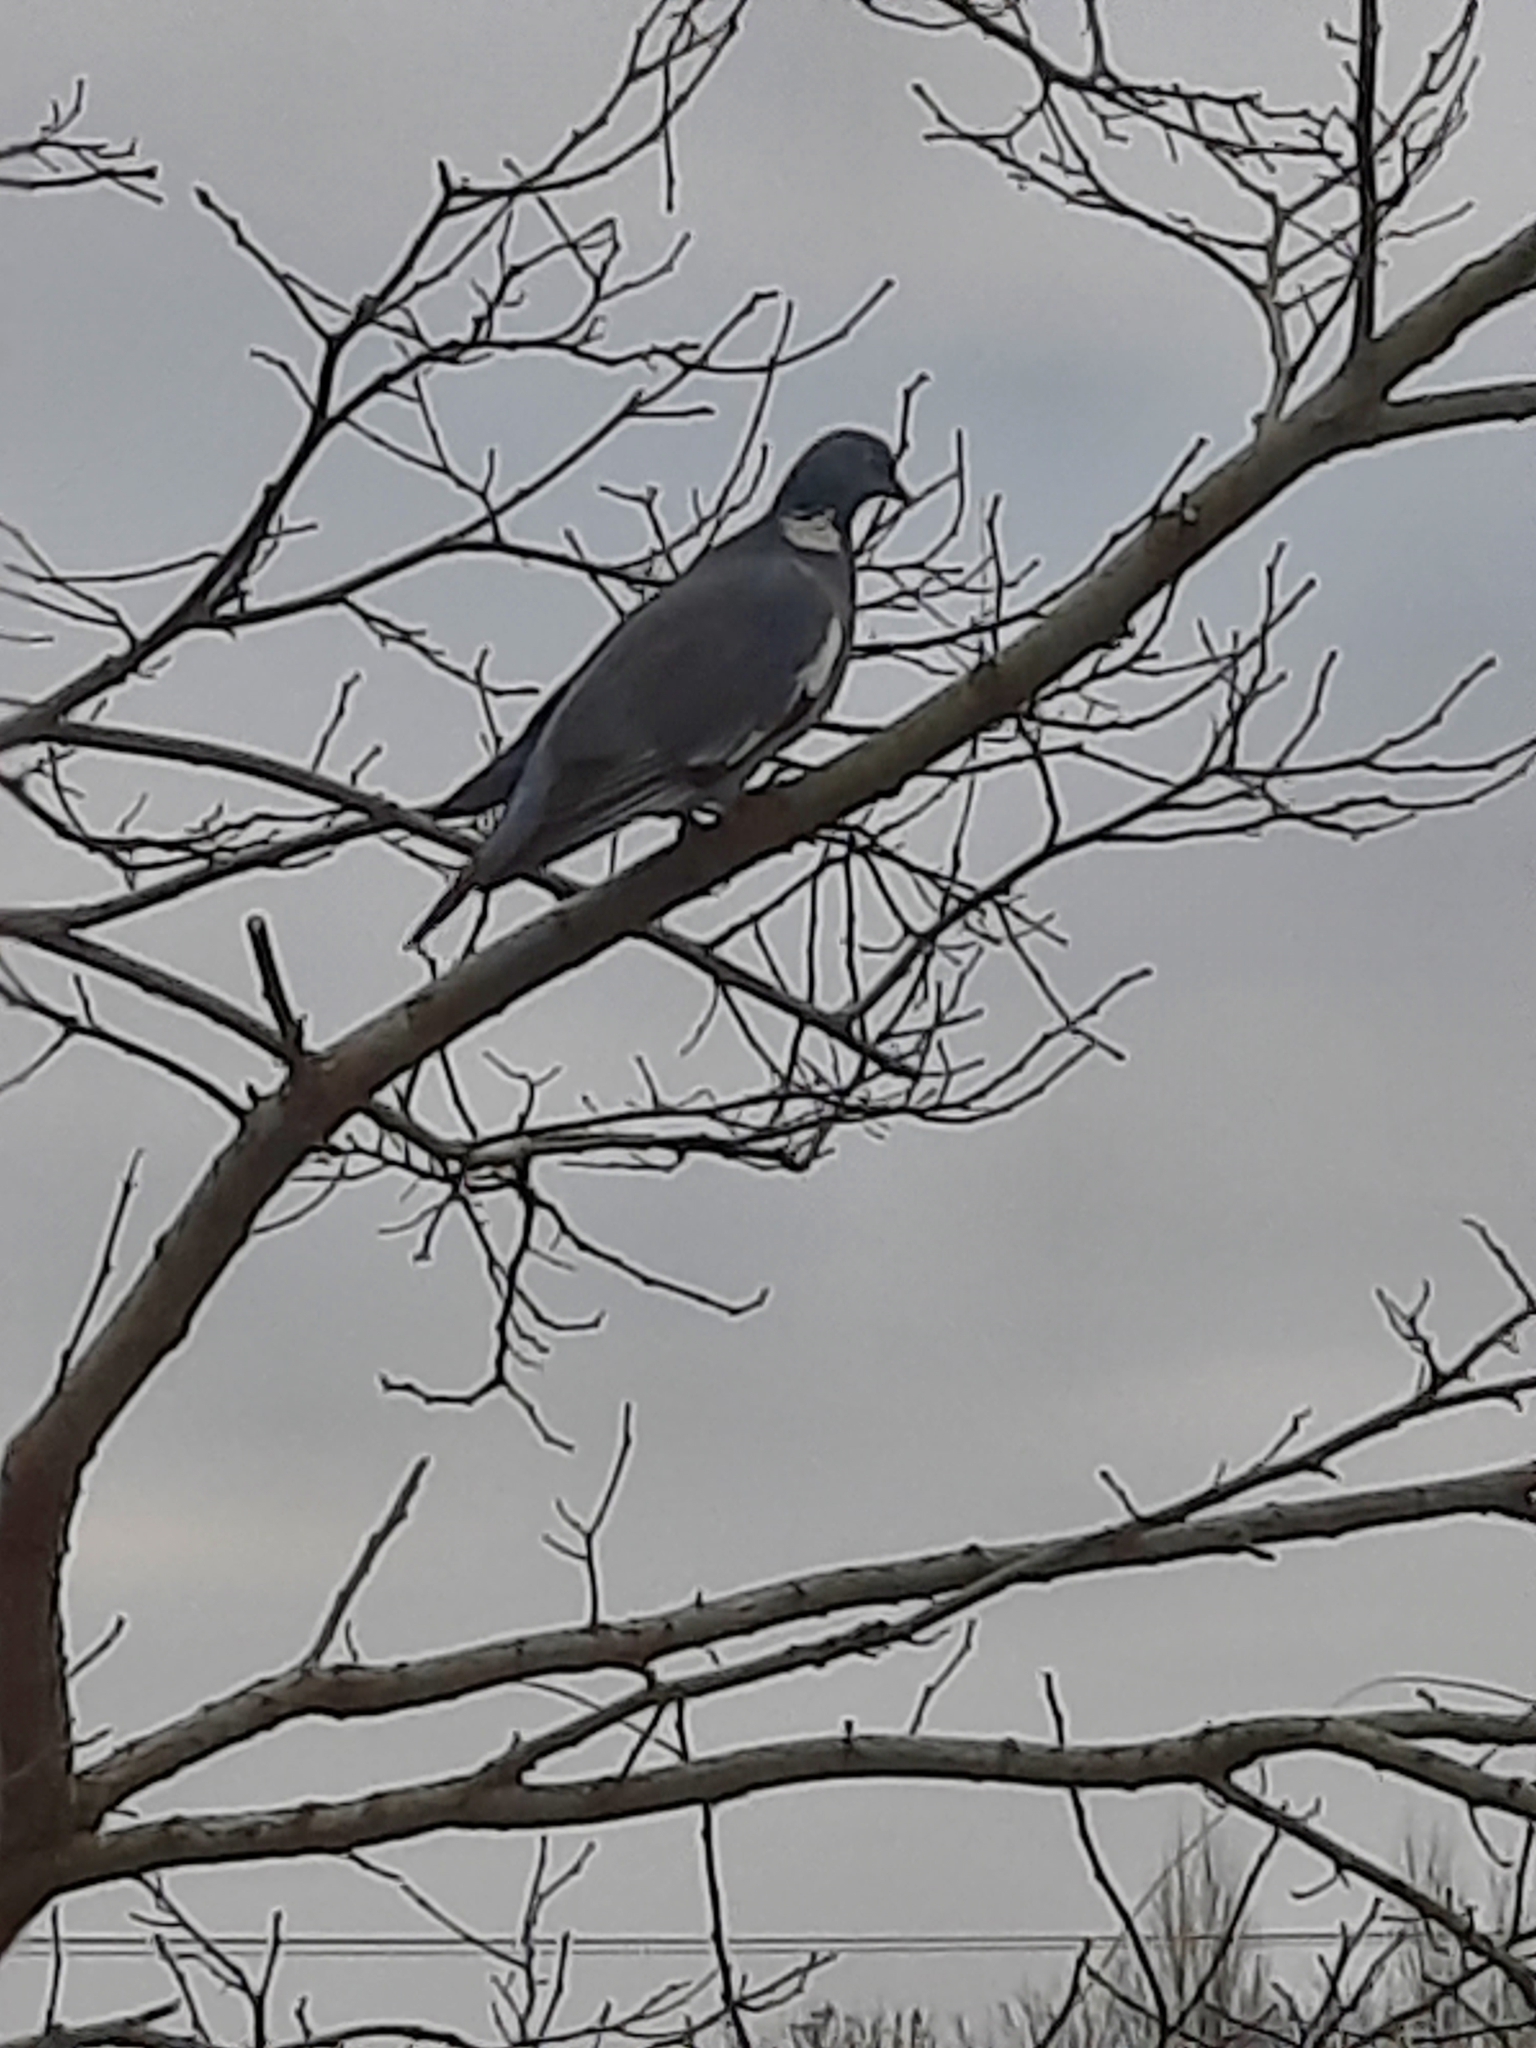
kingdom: Animalia
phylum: Chordata
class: Aves
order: Columbiformes
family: Columbidae
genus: Columba
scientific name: Columba palumbus
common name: Common wood pigeon
